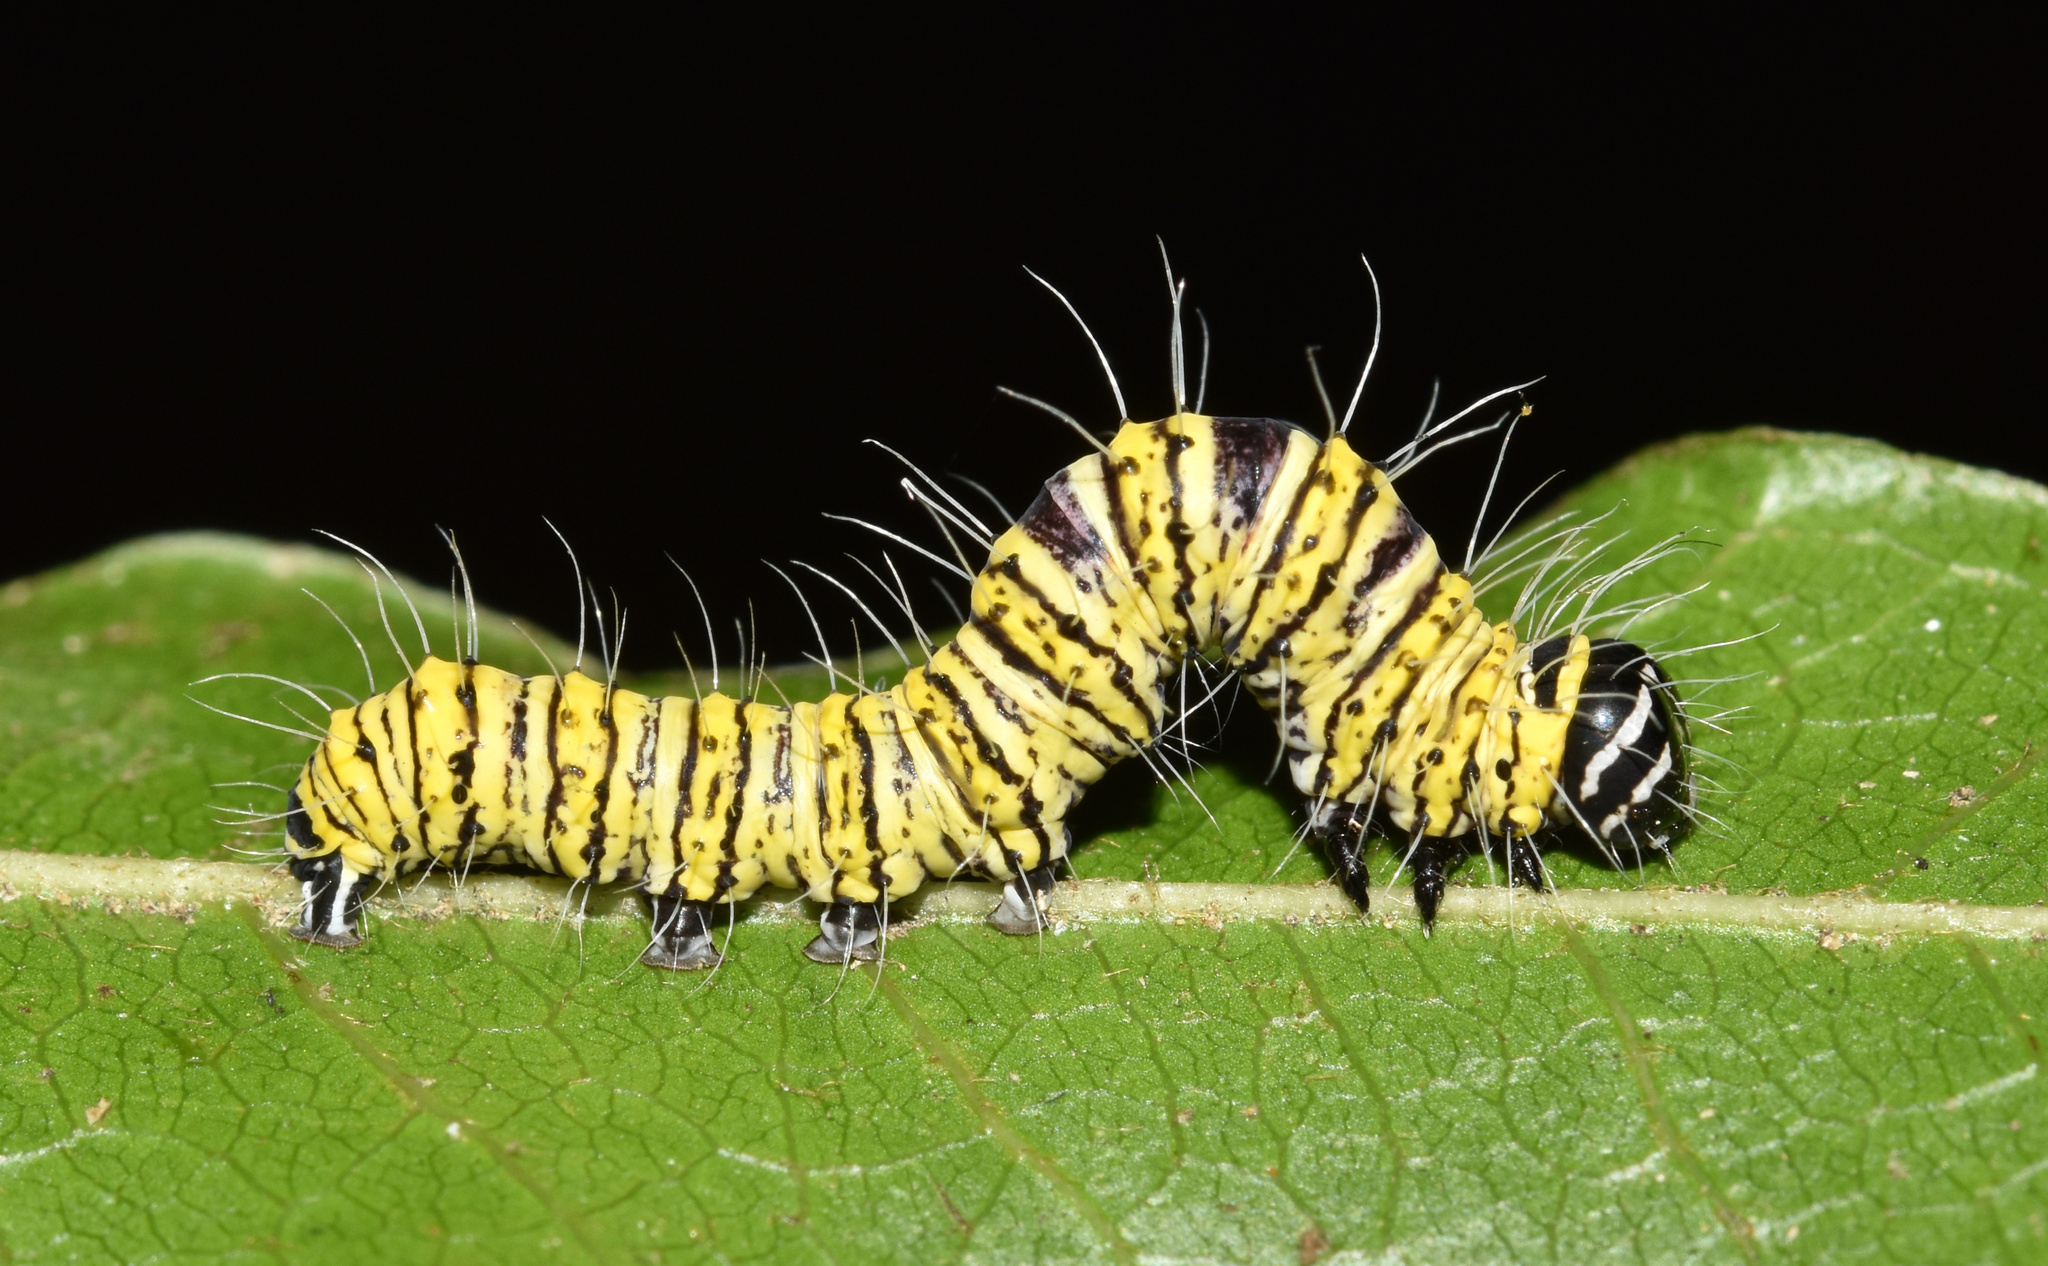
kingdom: Animalia
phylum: Arthropoda
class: Insecta
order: Lepidoptera
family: Erebidae
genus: Egybolis
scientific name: Egybolis vaillantina
